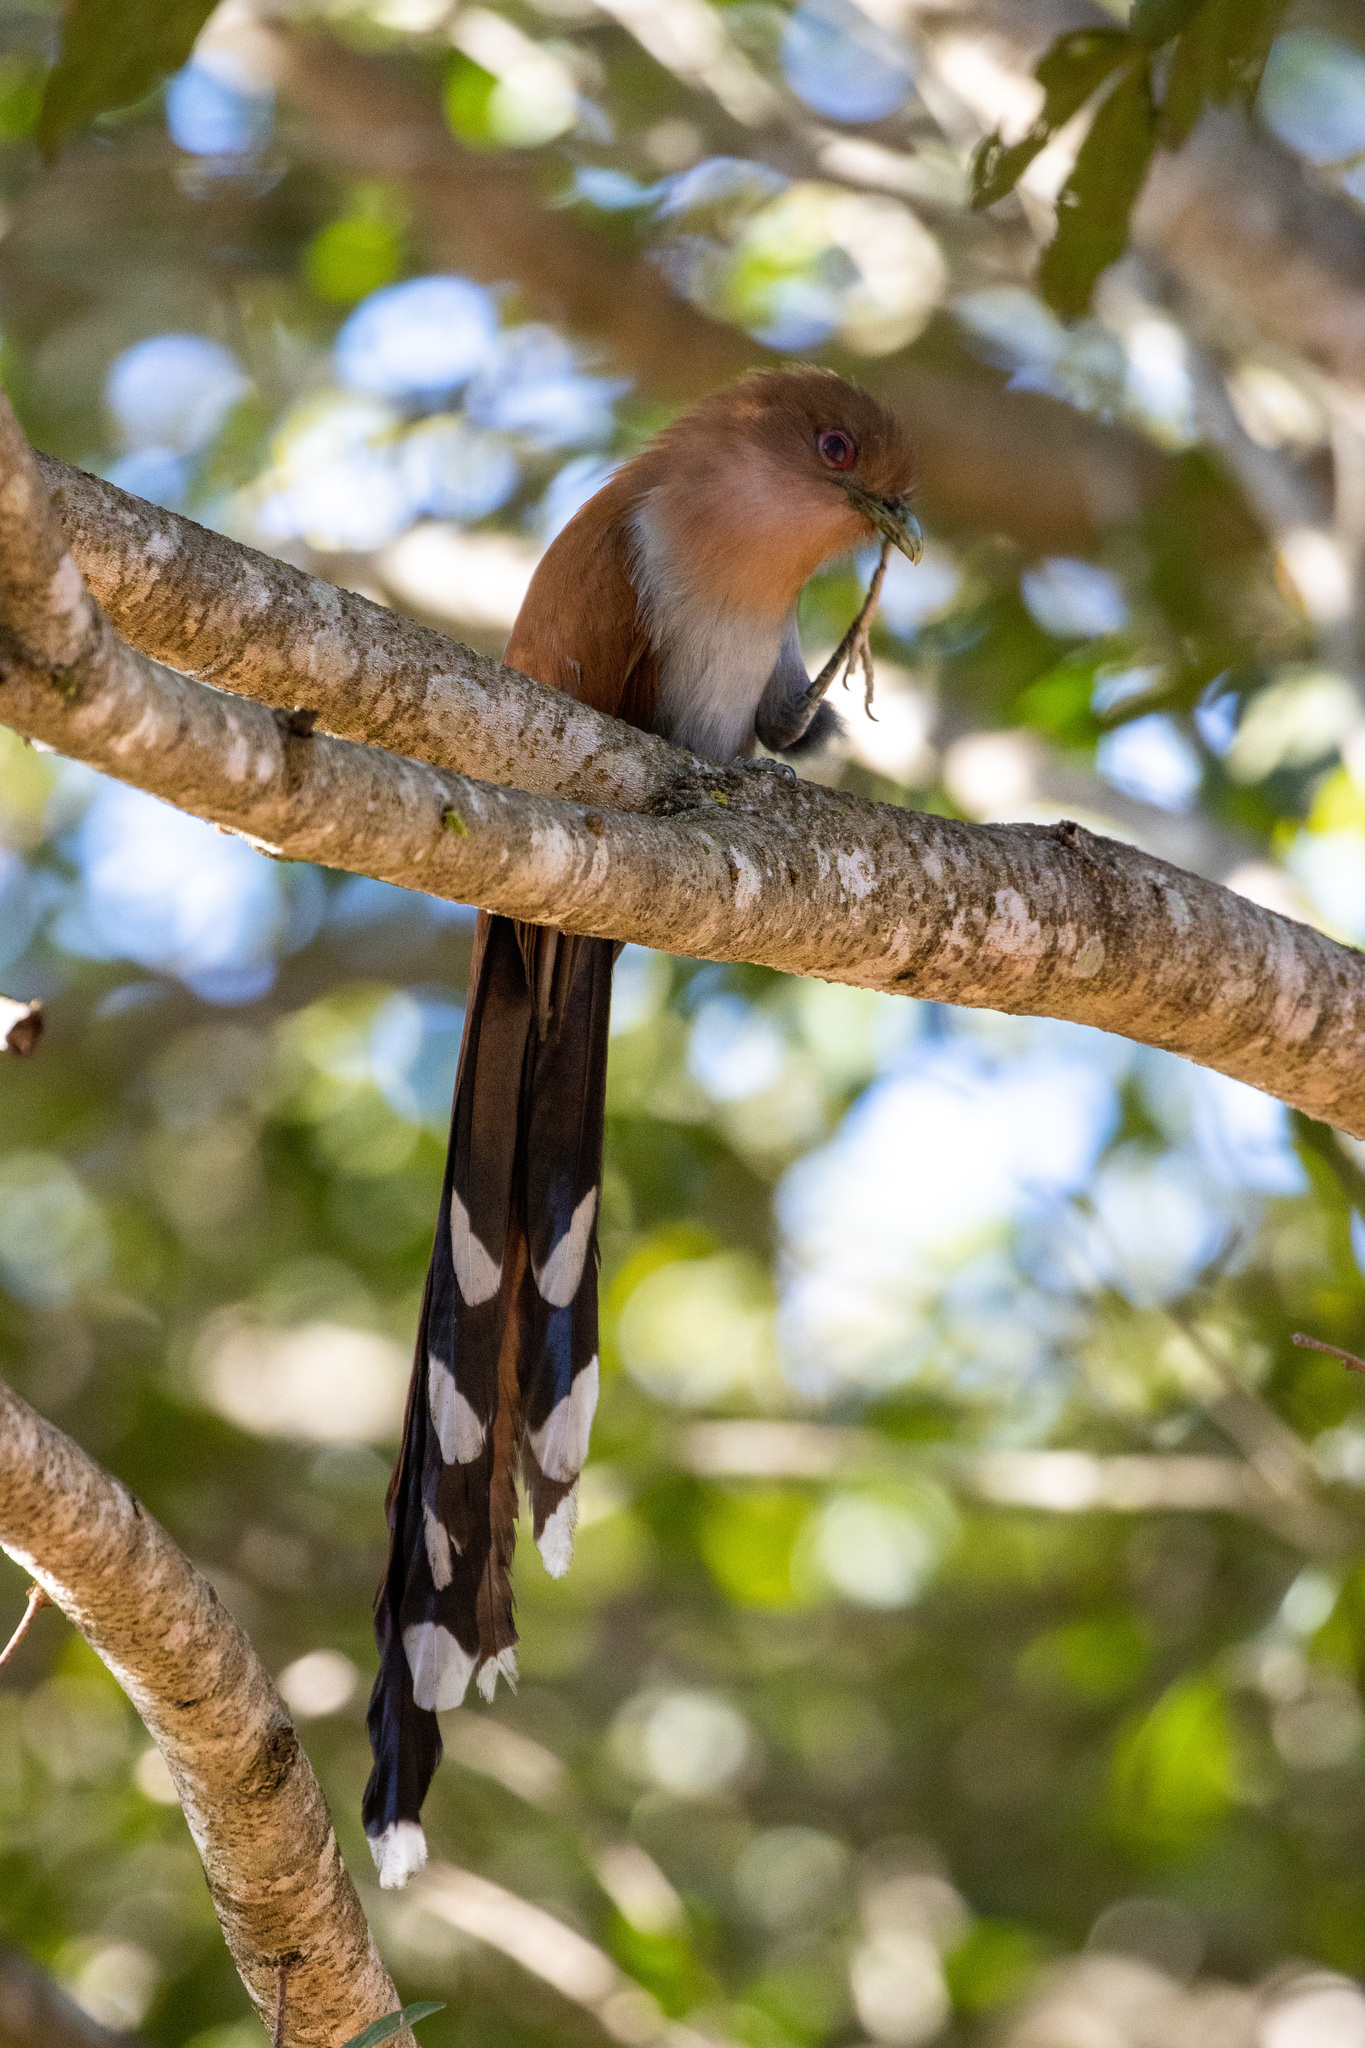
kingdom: Animalia
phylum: Chordata
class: Aves
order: Cuculiformes
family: Cuculidae
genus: Piaya
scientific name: Piaya cayana
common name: Squirrel cuckoo
